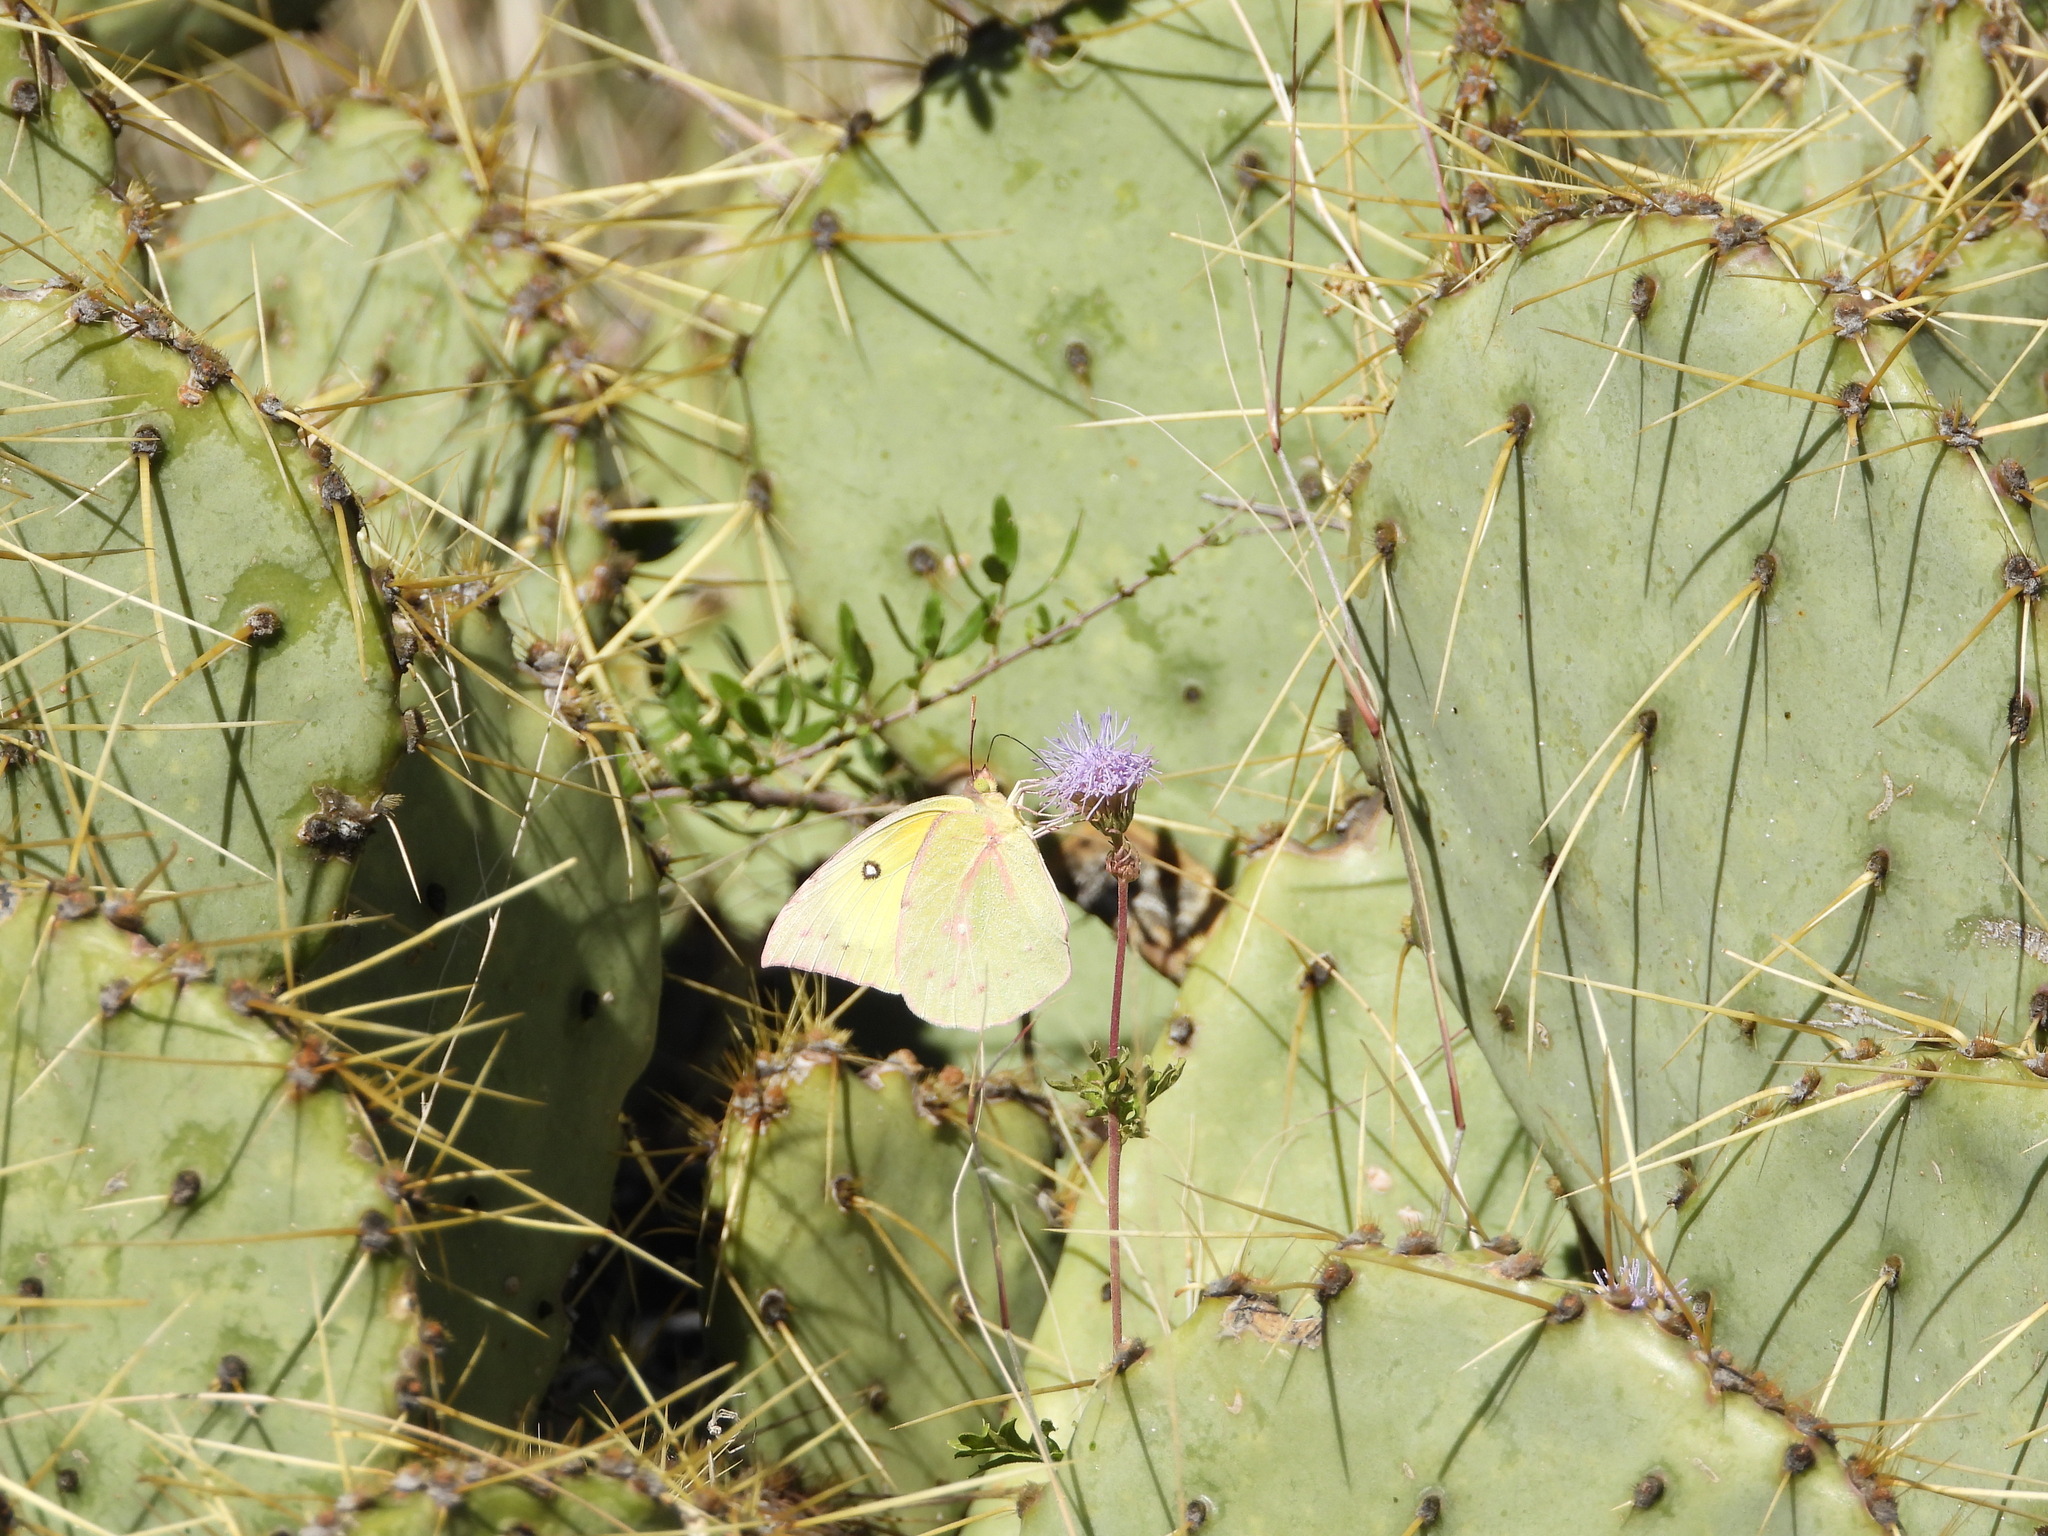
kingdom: Animalia
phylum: Arthropoda
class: Insecta
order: Lepidoptera
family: Pieridae
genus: Zerene
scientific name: Zerene cesonia
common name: Southern dogface
